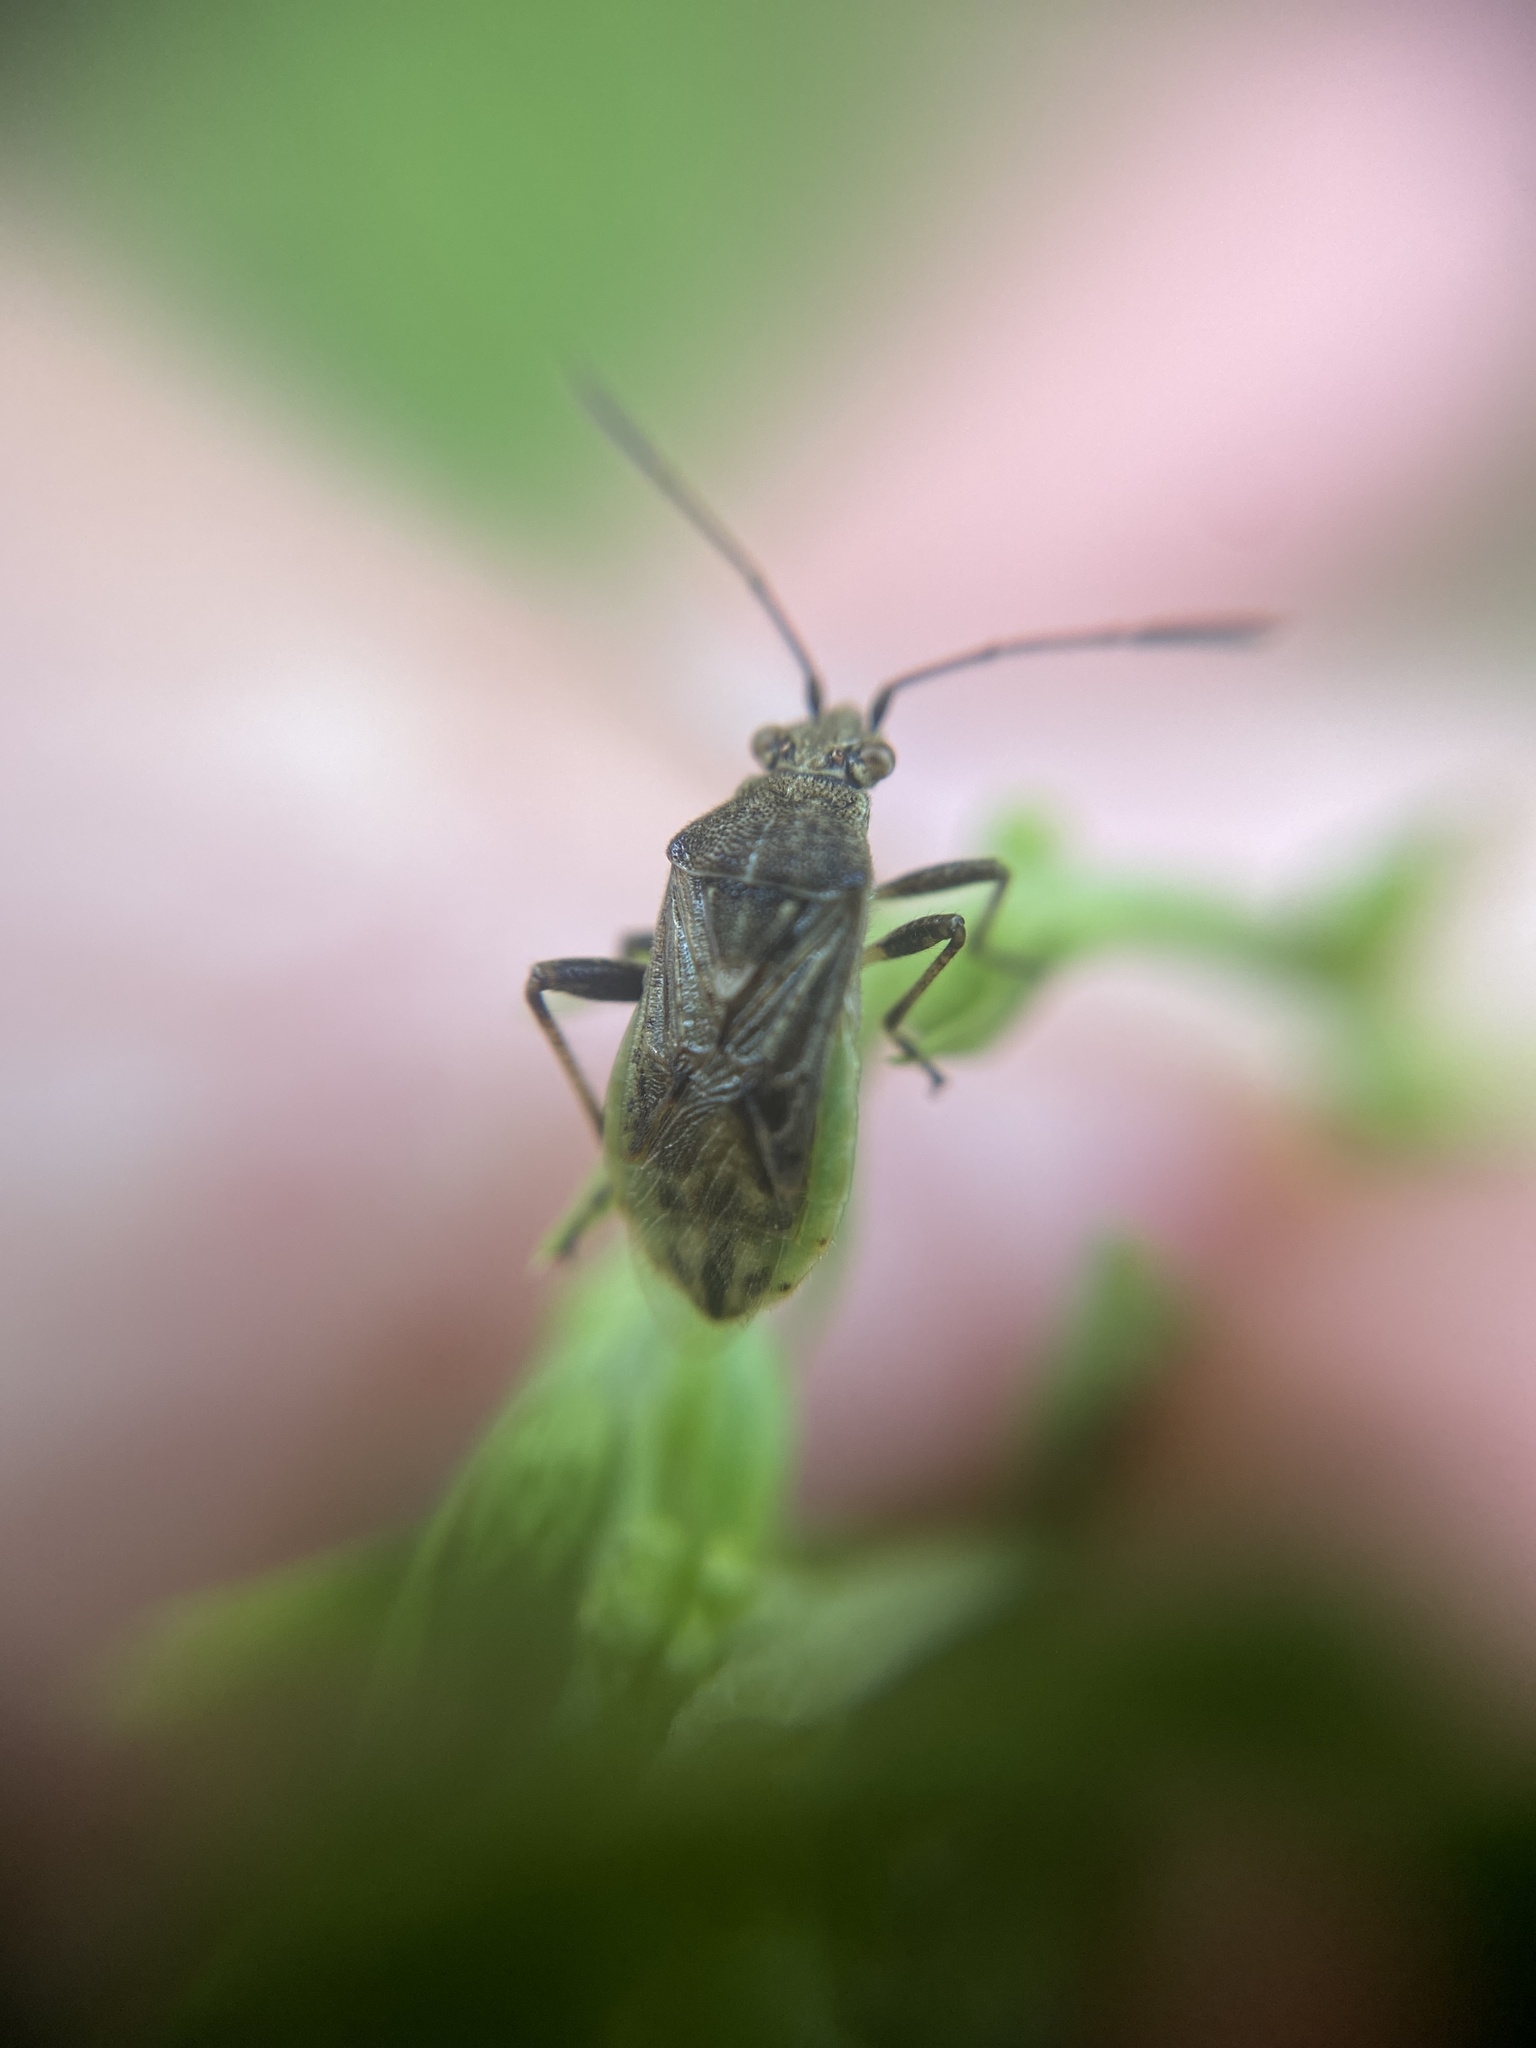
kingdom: Animalia
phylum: Arthropoda
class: Insecta
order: Hemiptera
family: Rhopalidae
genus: Stictopleurus
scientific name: Stictopleurus punctatonervosus
